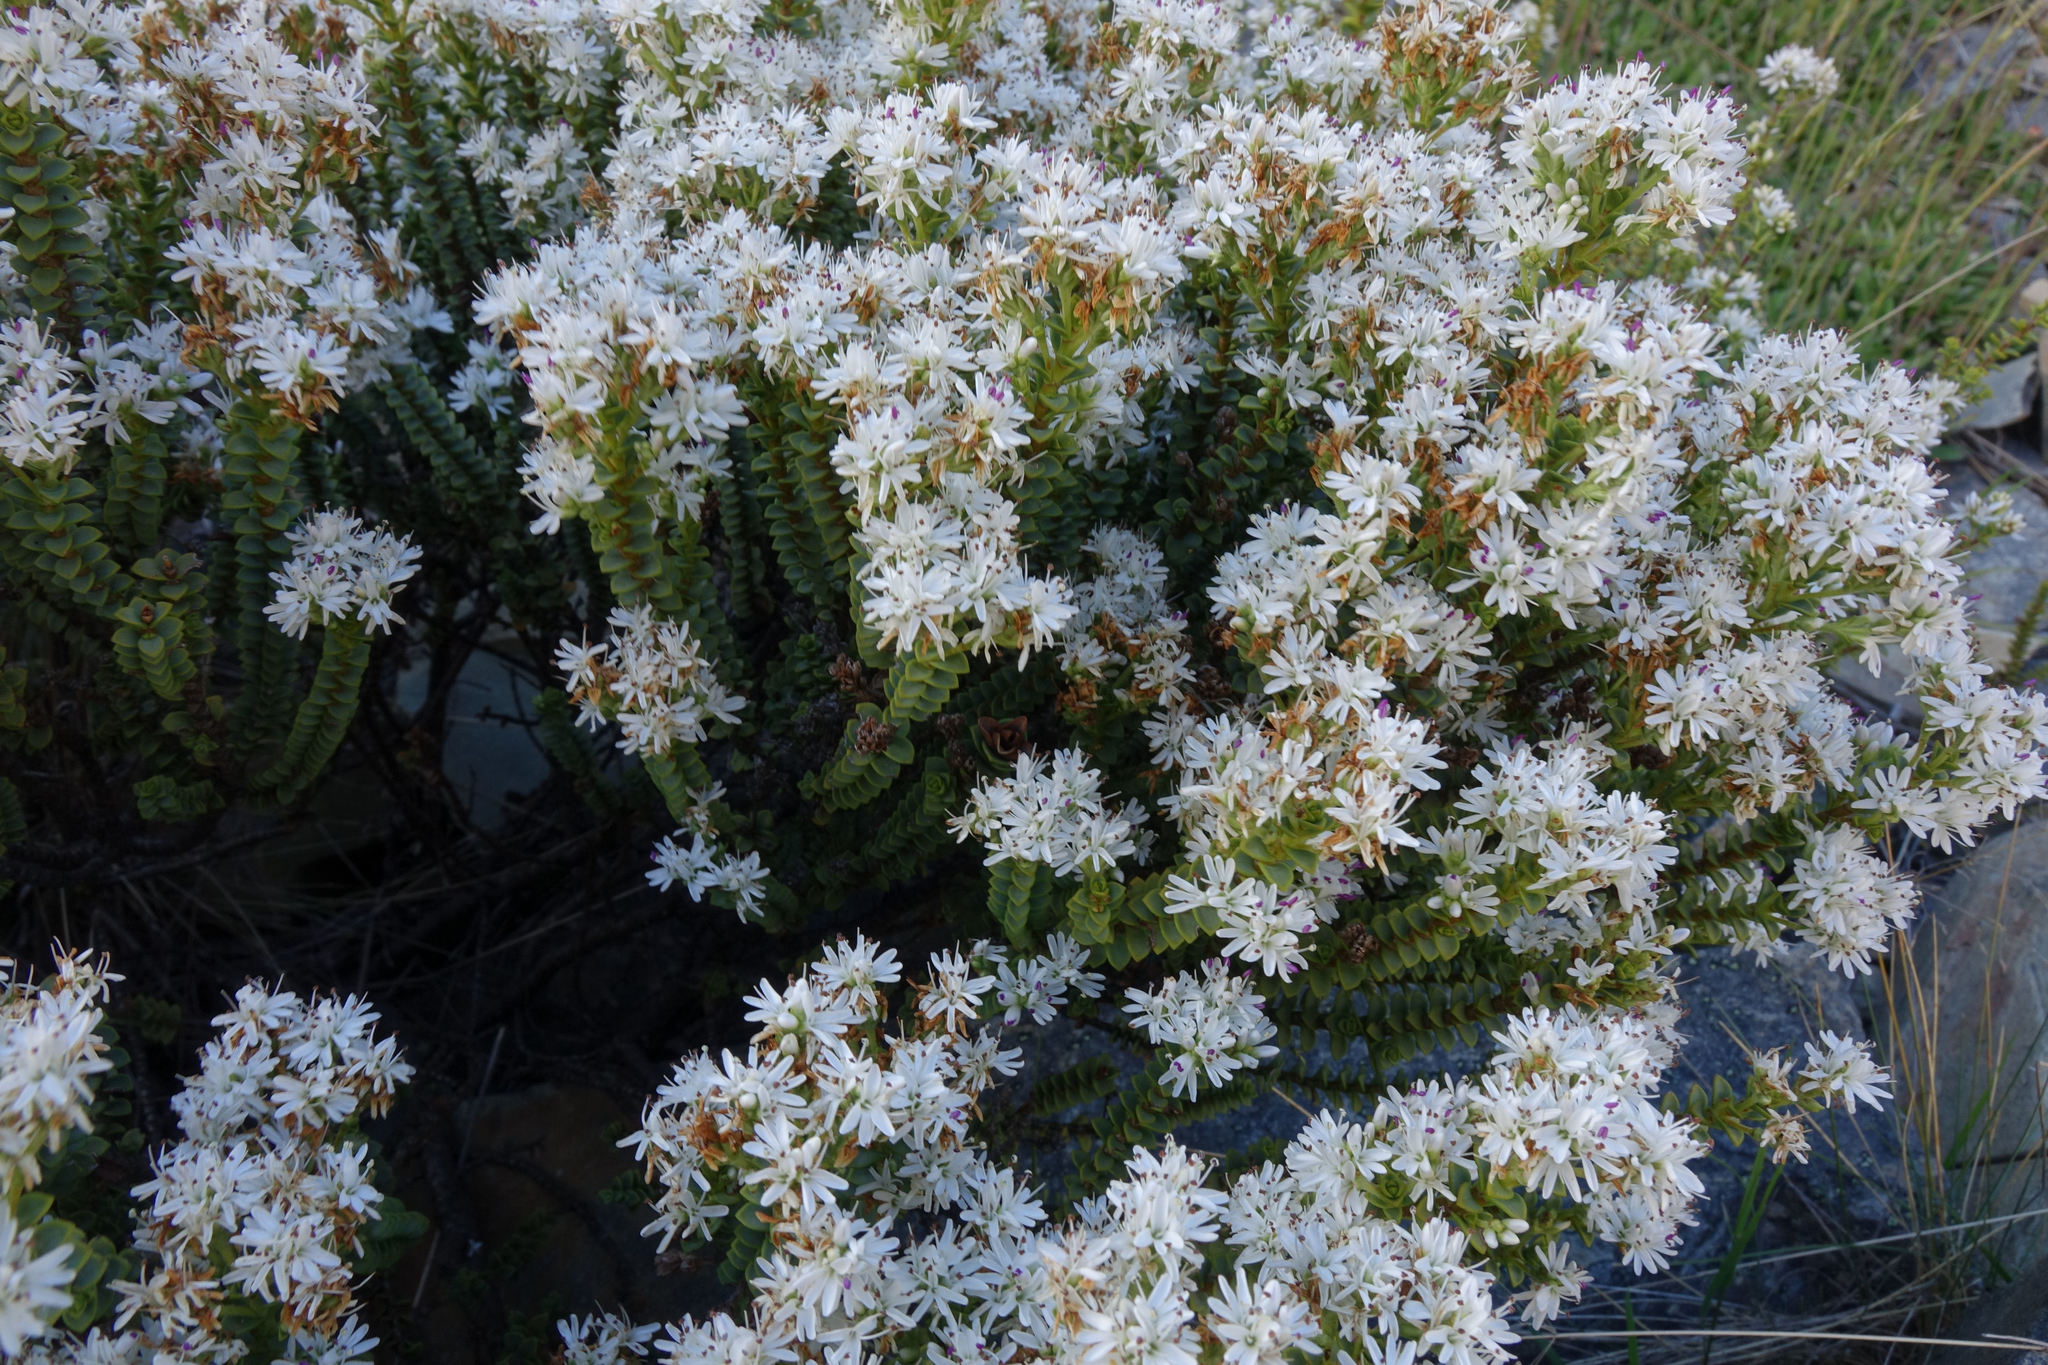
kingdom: Plantae
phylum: Tracheophyta
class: Magnoliopsida
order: Lamiales
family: Plantaginaceae
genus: Veronica
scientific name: Veronica buchananii
